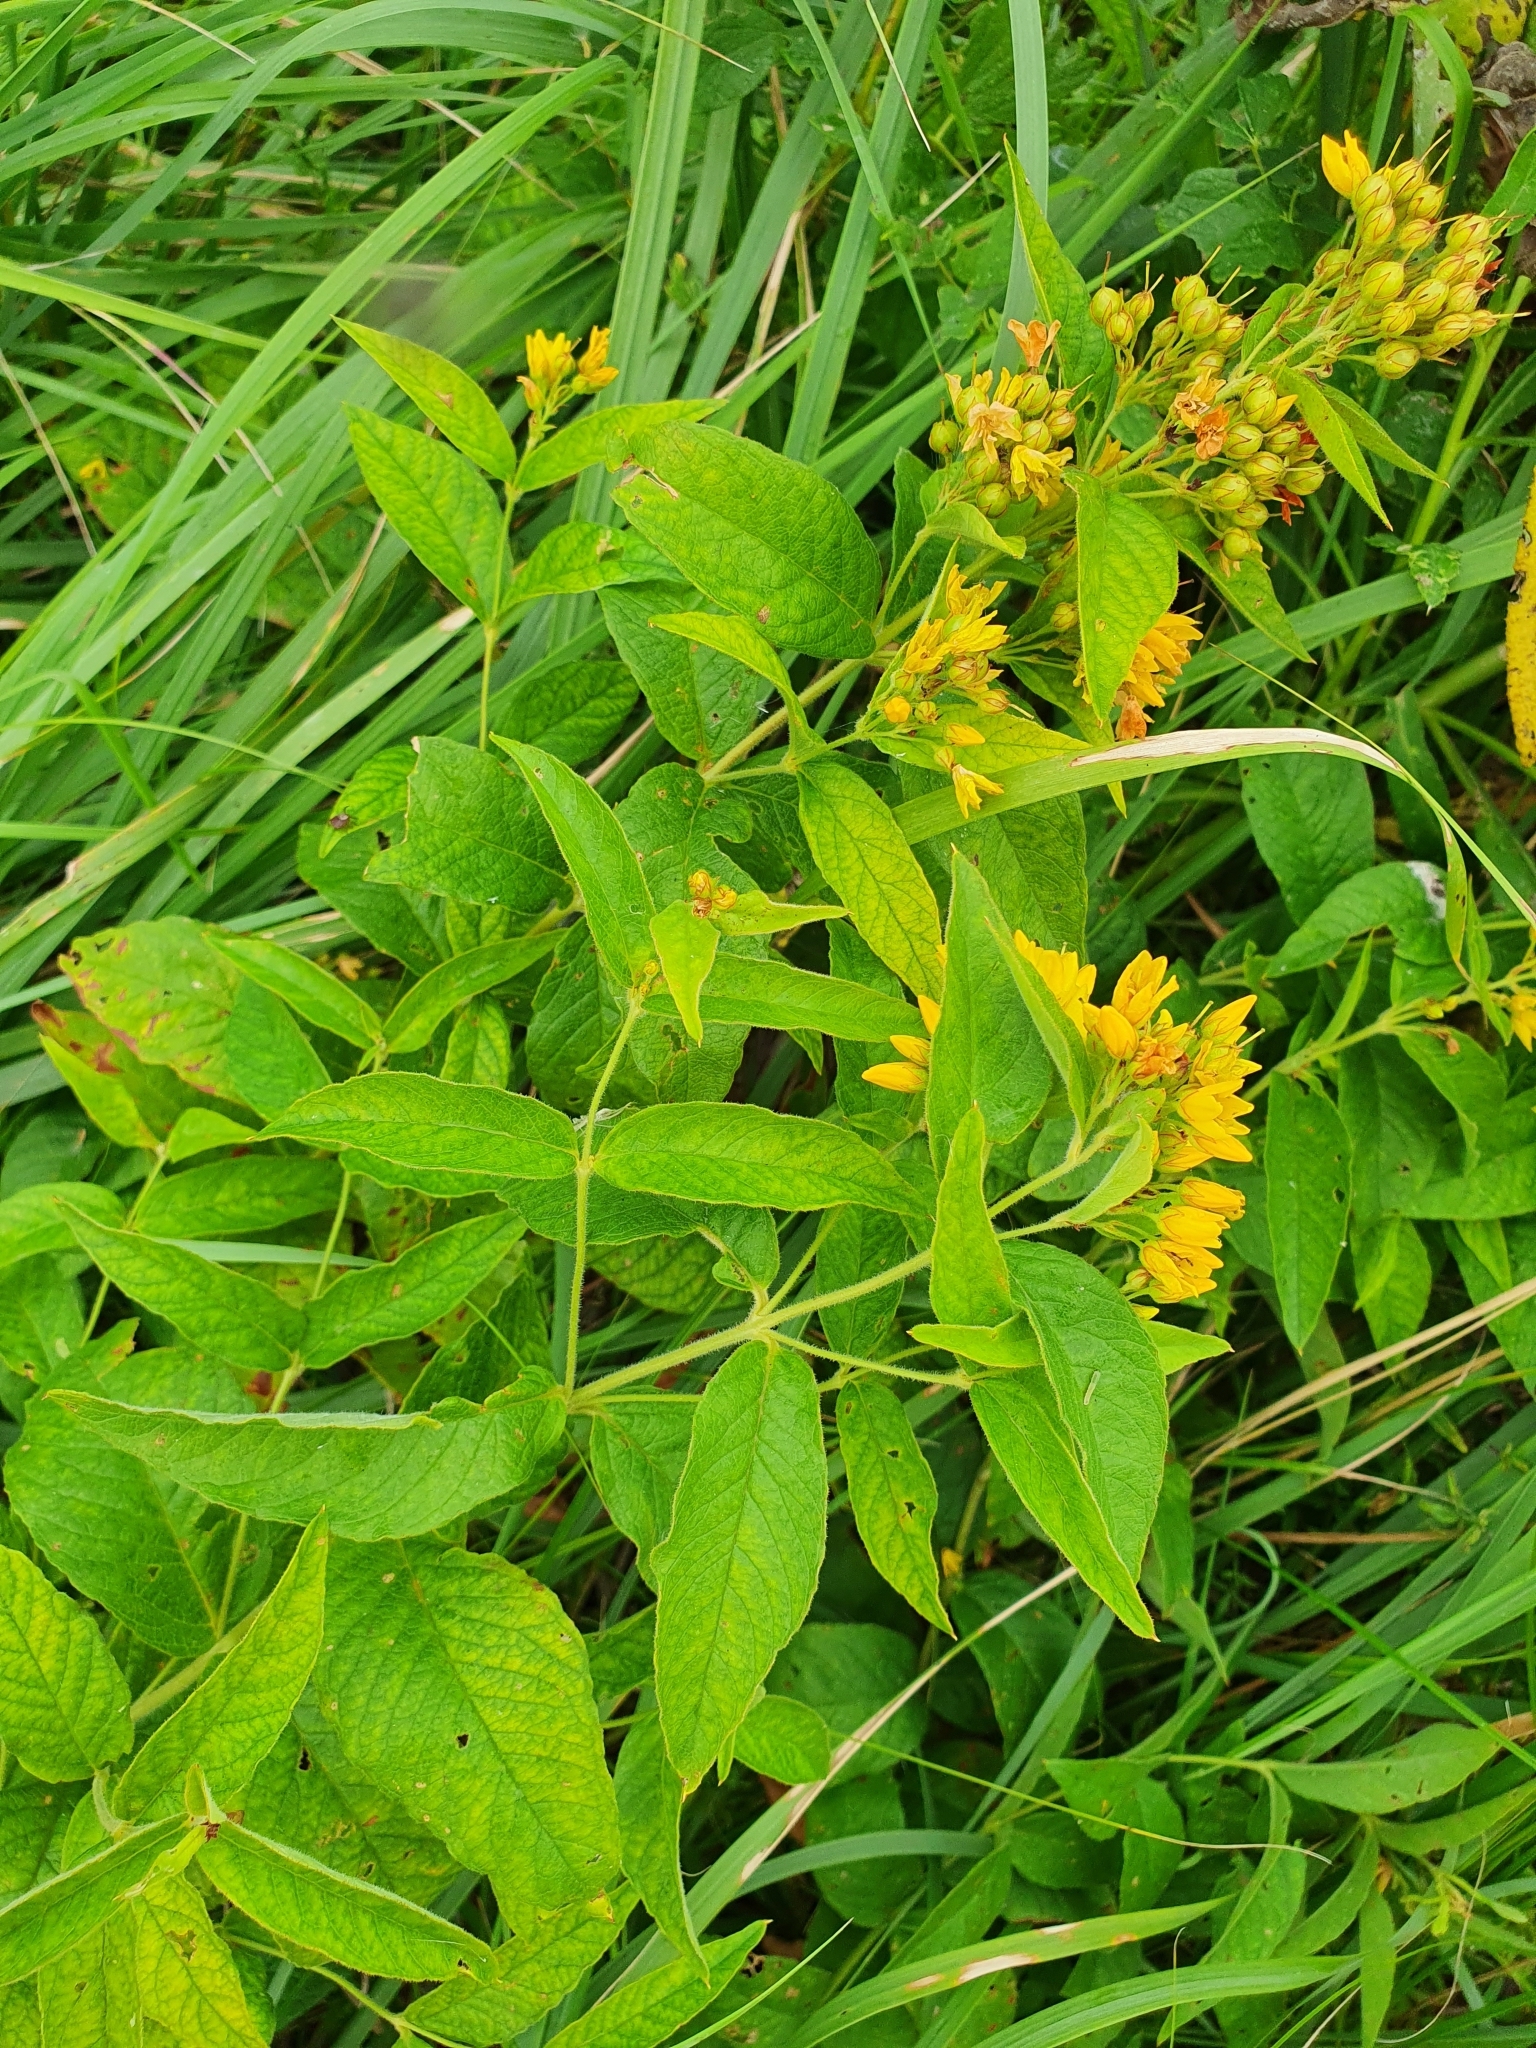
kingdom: Plantae
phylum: Tracheophyta
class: Magnoliopsida
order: Ericales
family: Primulaceae
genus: Lysimachia
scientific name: Lysimachia vulgaris
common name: Yellow loosestrife
